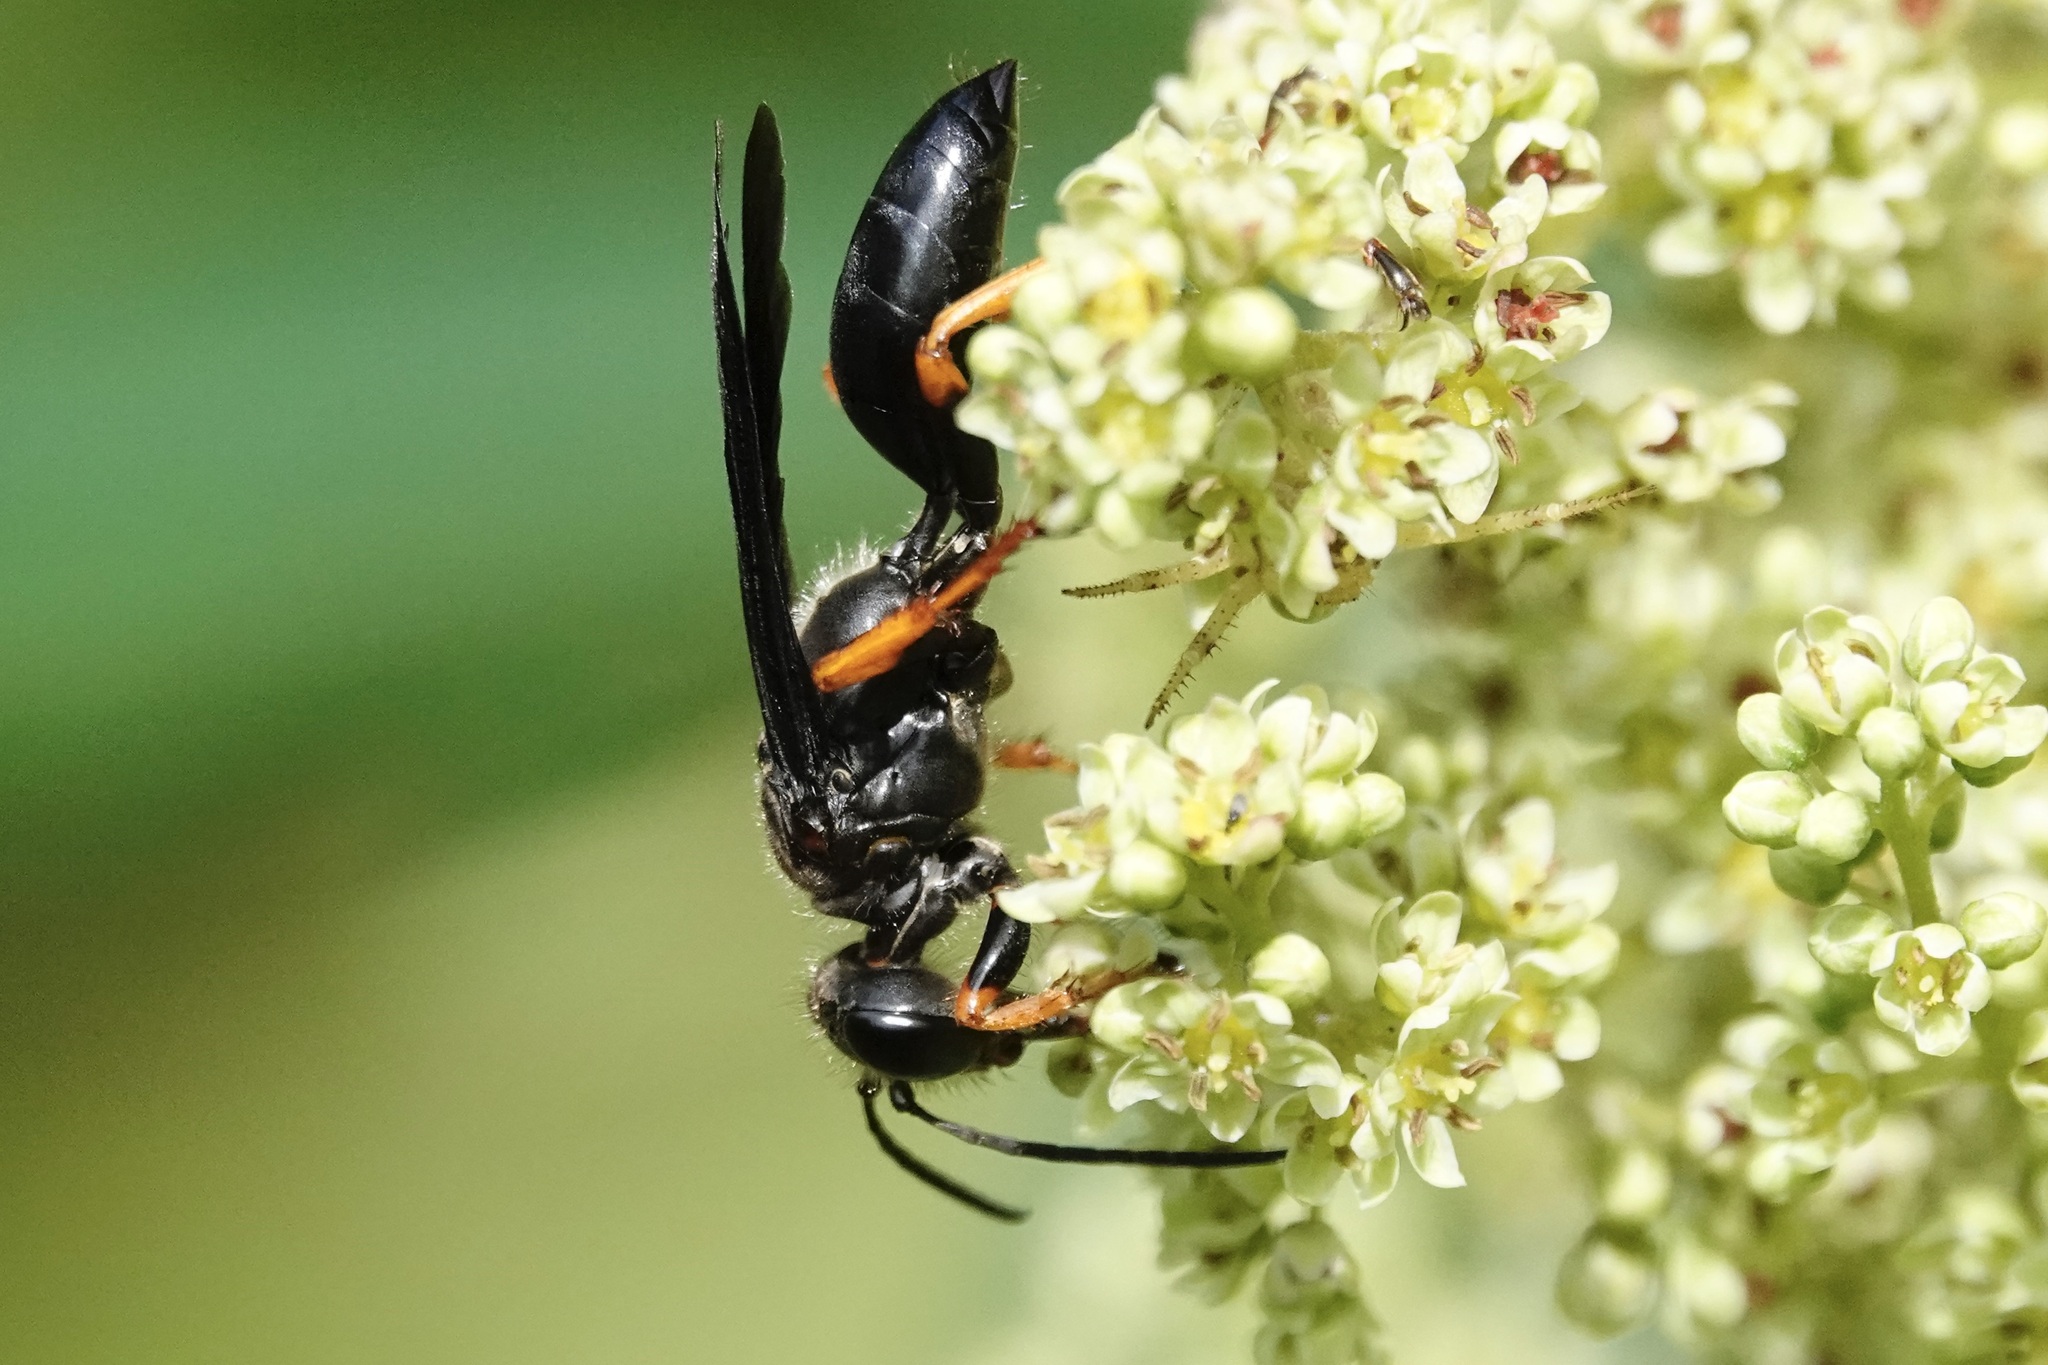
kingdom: Animalia
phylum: Arthropoda
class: Insecta
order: Hymenoptera
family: Sphecidae
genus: Sphex
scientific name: Sphex nudus
